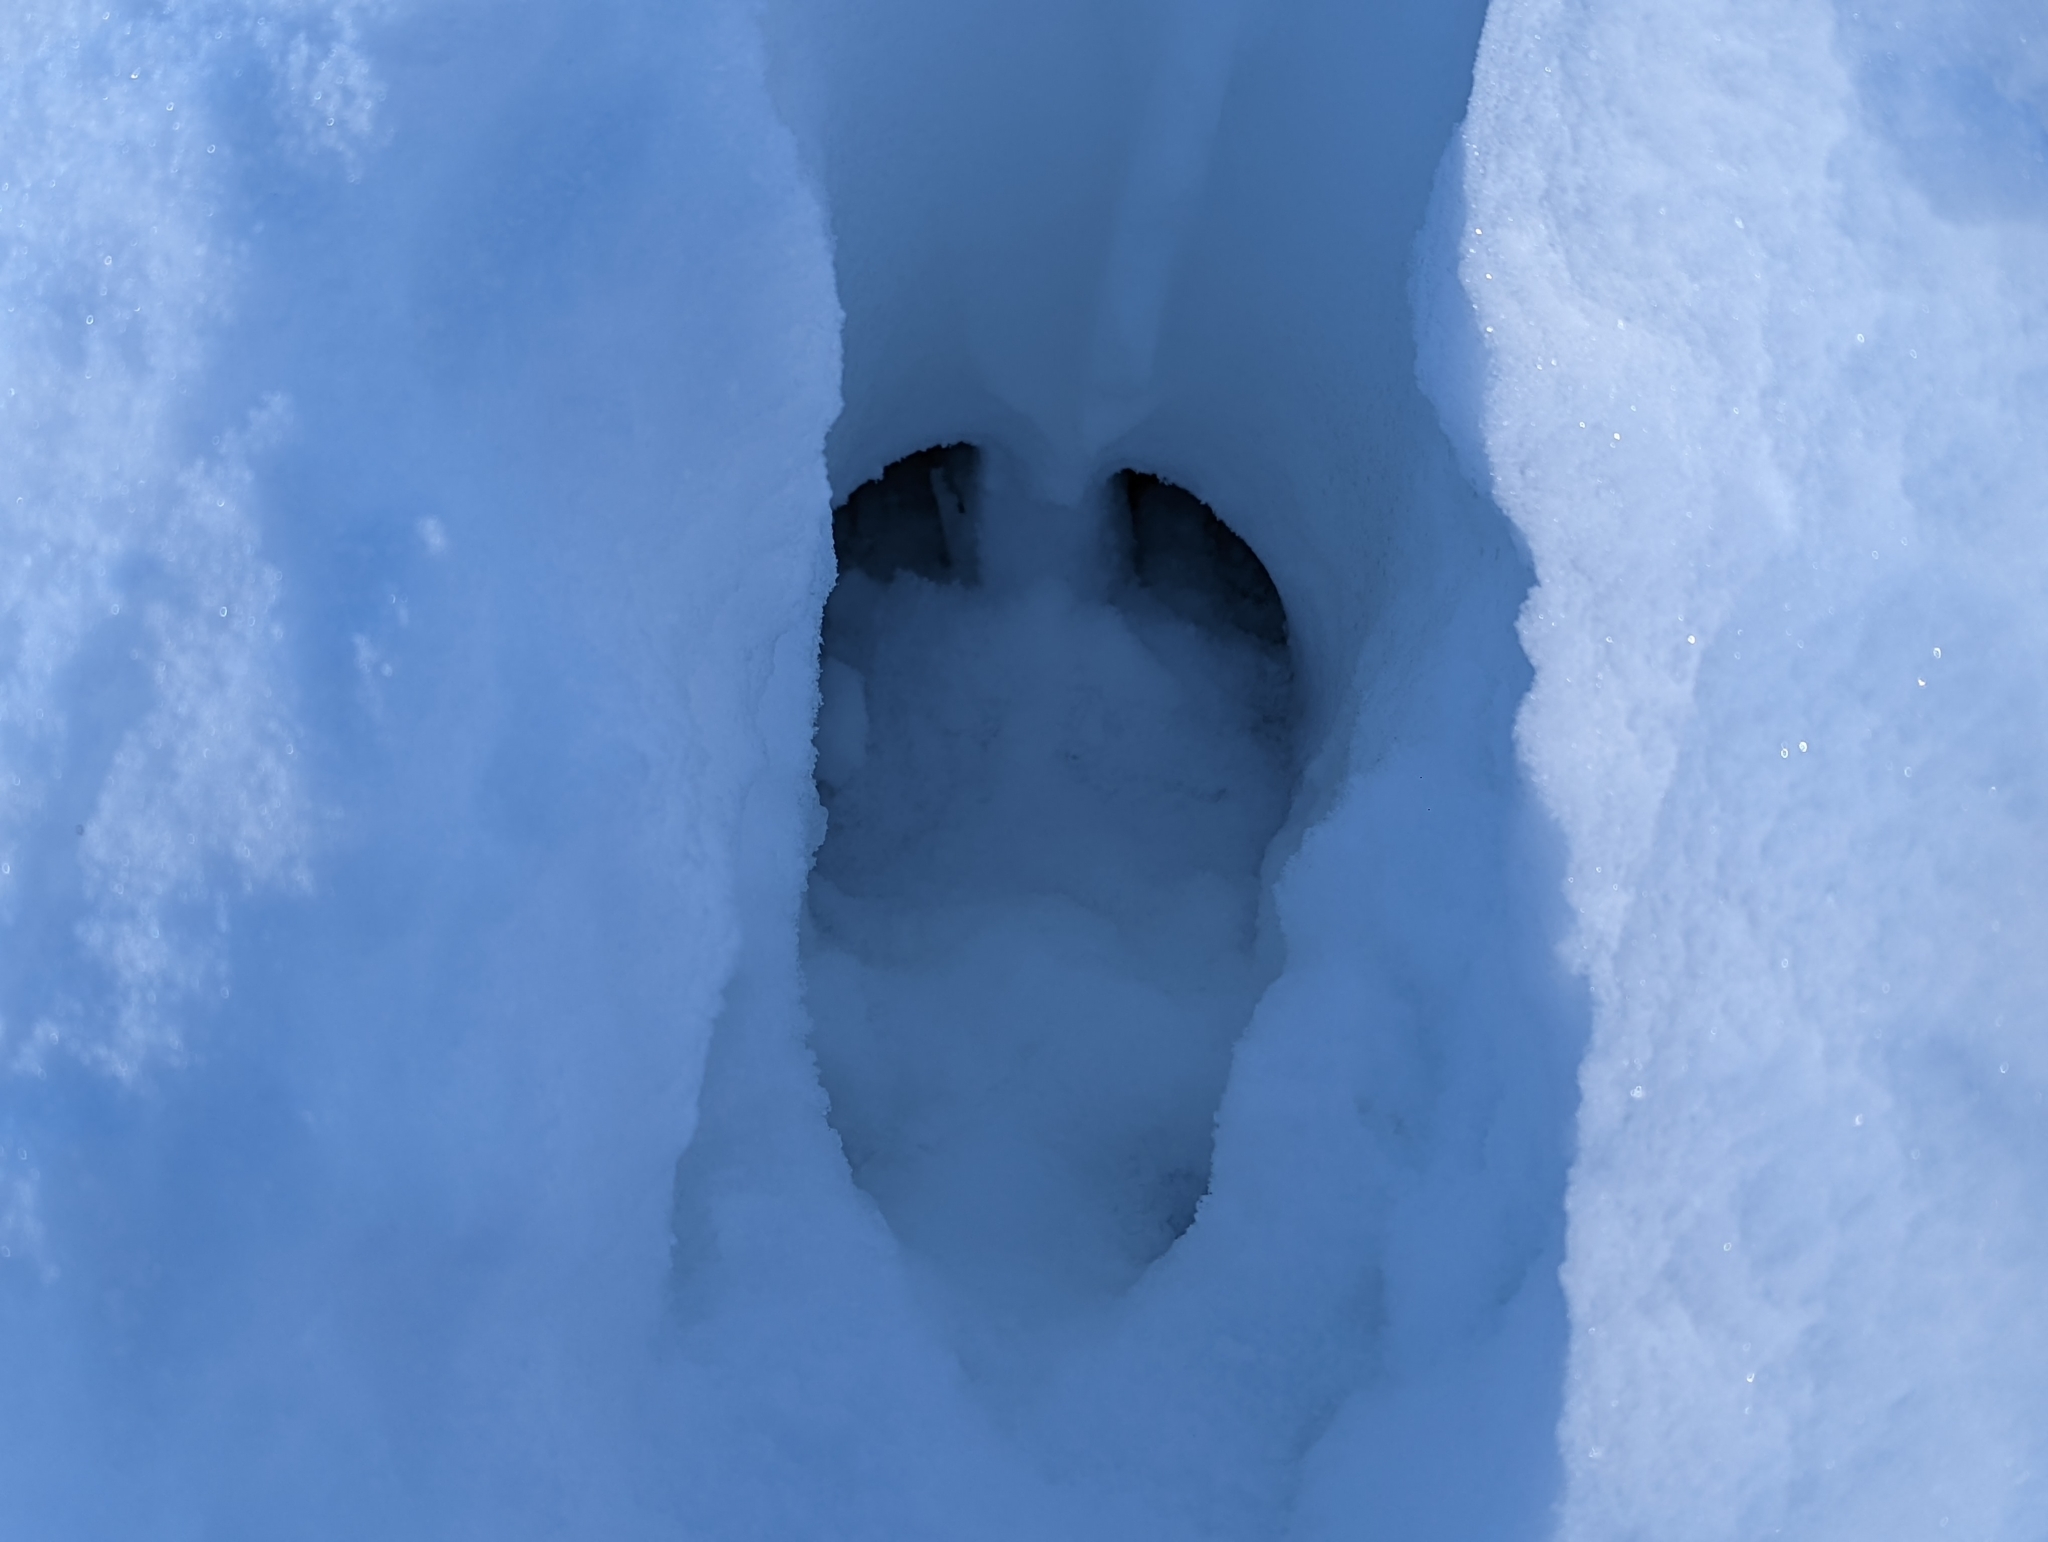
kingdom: Animalia
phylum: Chordata
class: Mammalia
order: Artiodactyla
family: Cervidae
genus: Alces
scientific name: Alces alces
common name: Moose
